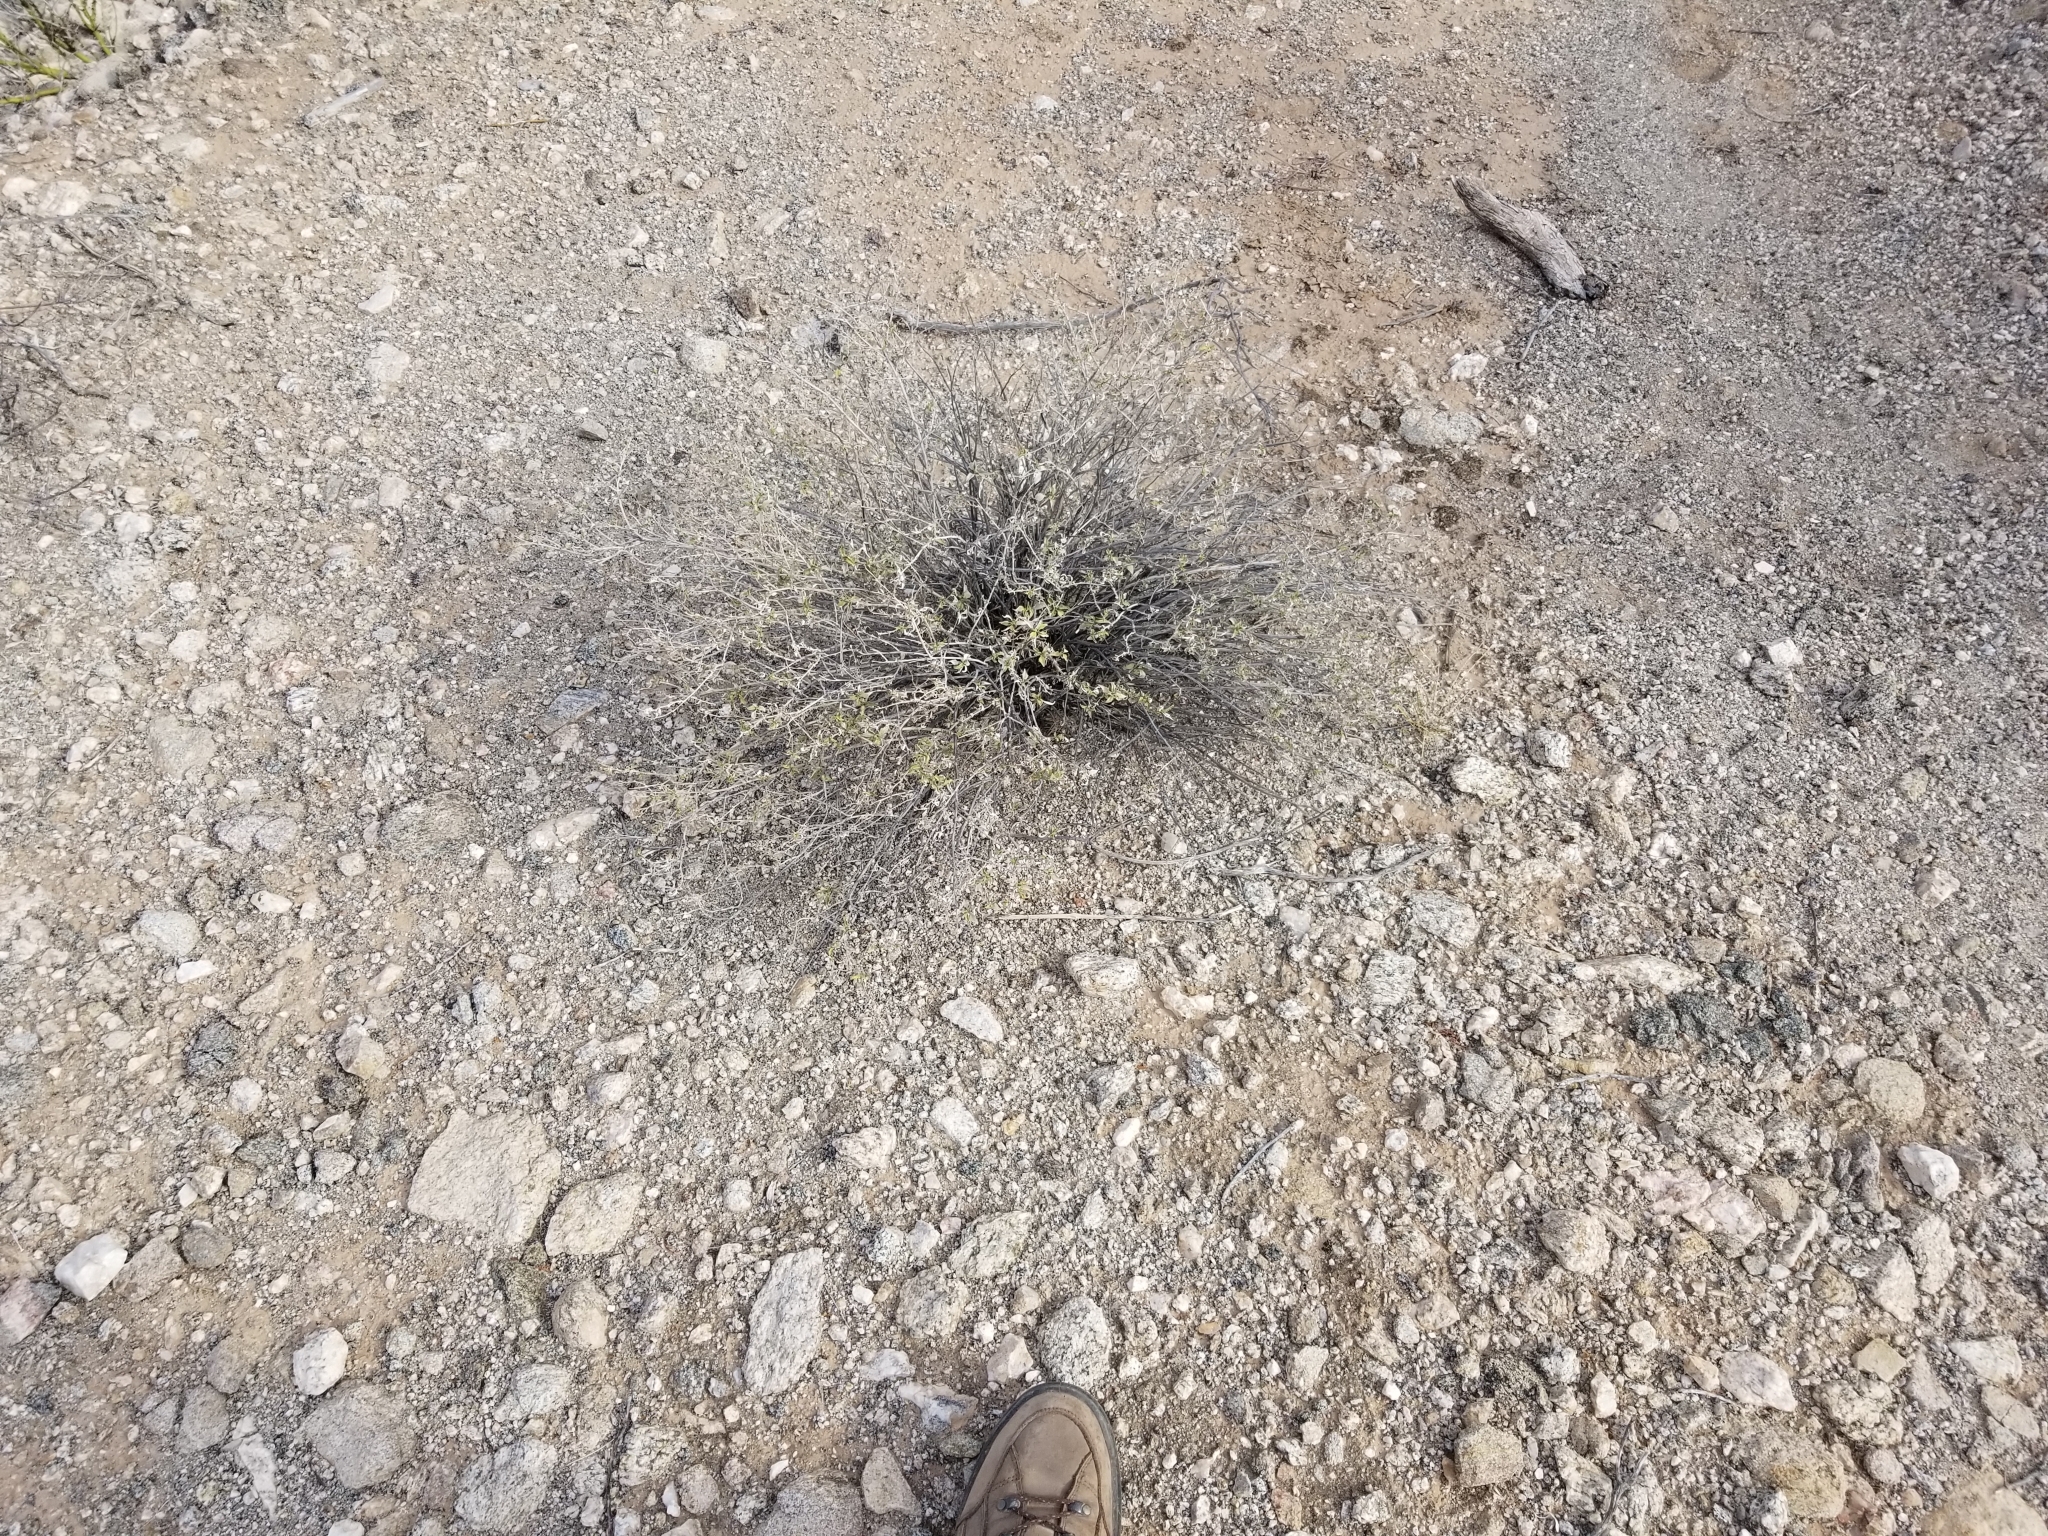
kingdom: Plantae
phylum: Tracheophyta
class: Magnoliopsida
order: Asterales
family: Asteraceae
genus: Ambrosia
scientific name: Ambrosia deltoidea
